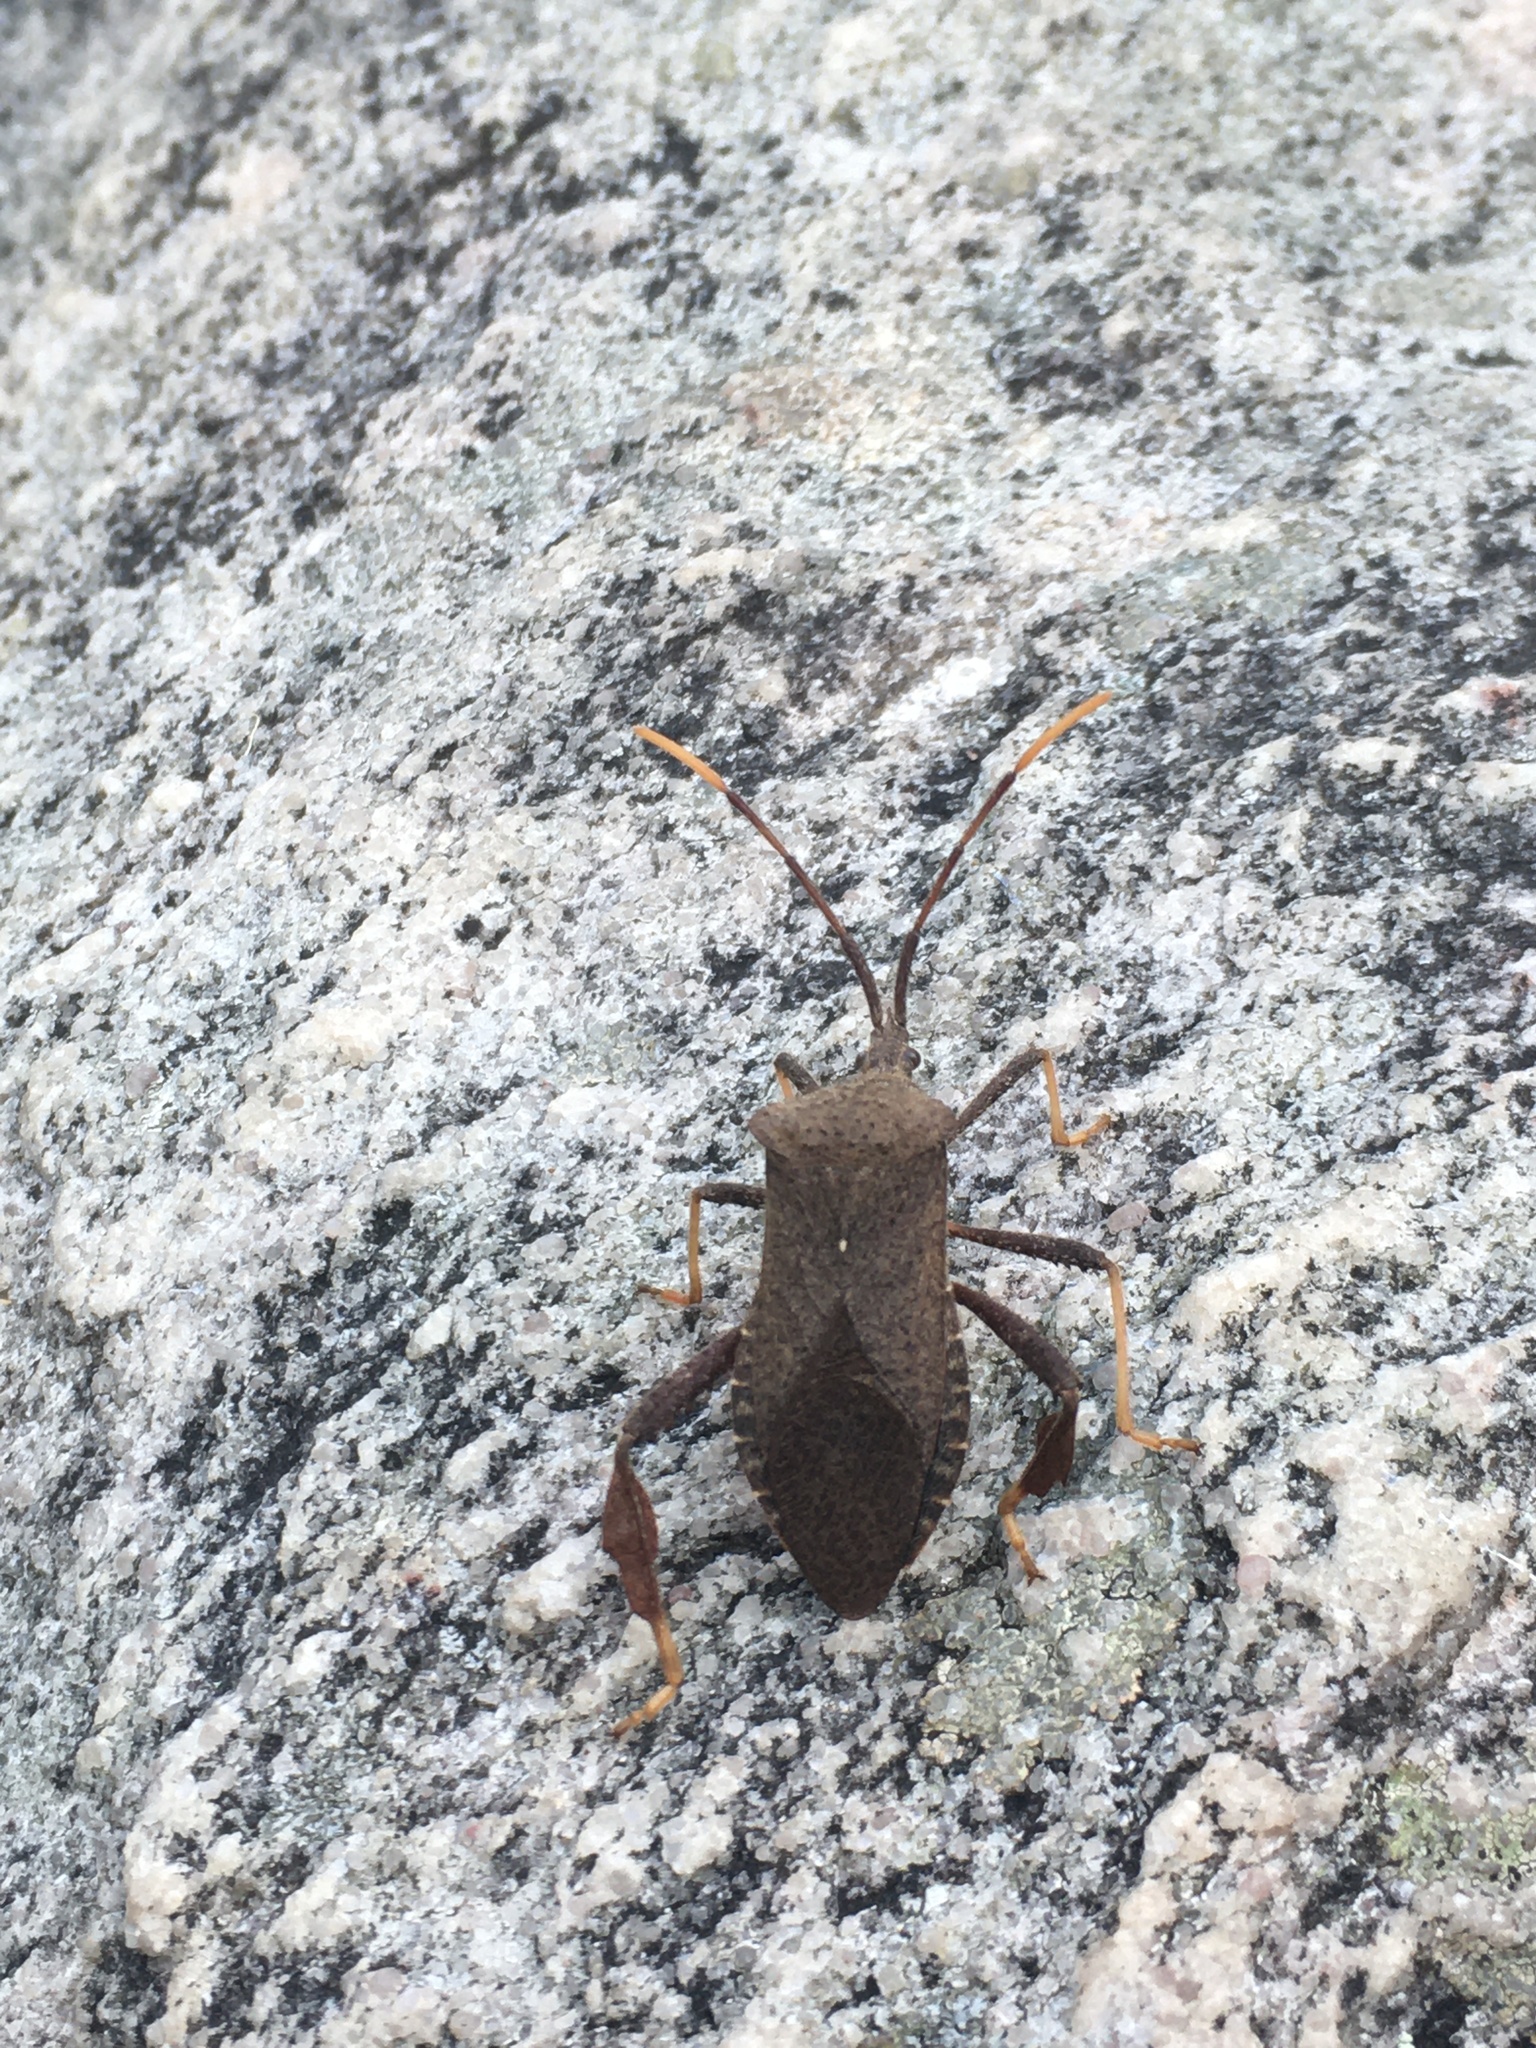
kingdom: Animalia
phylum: Arthropoda
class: Insecta
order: Hemiptera
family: Coreidae
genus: Acanthocephala
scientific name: Acanthocephala terminalis
